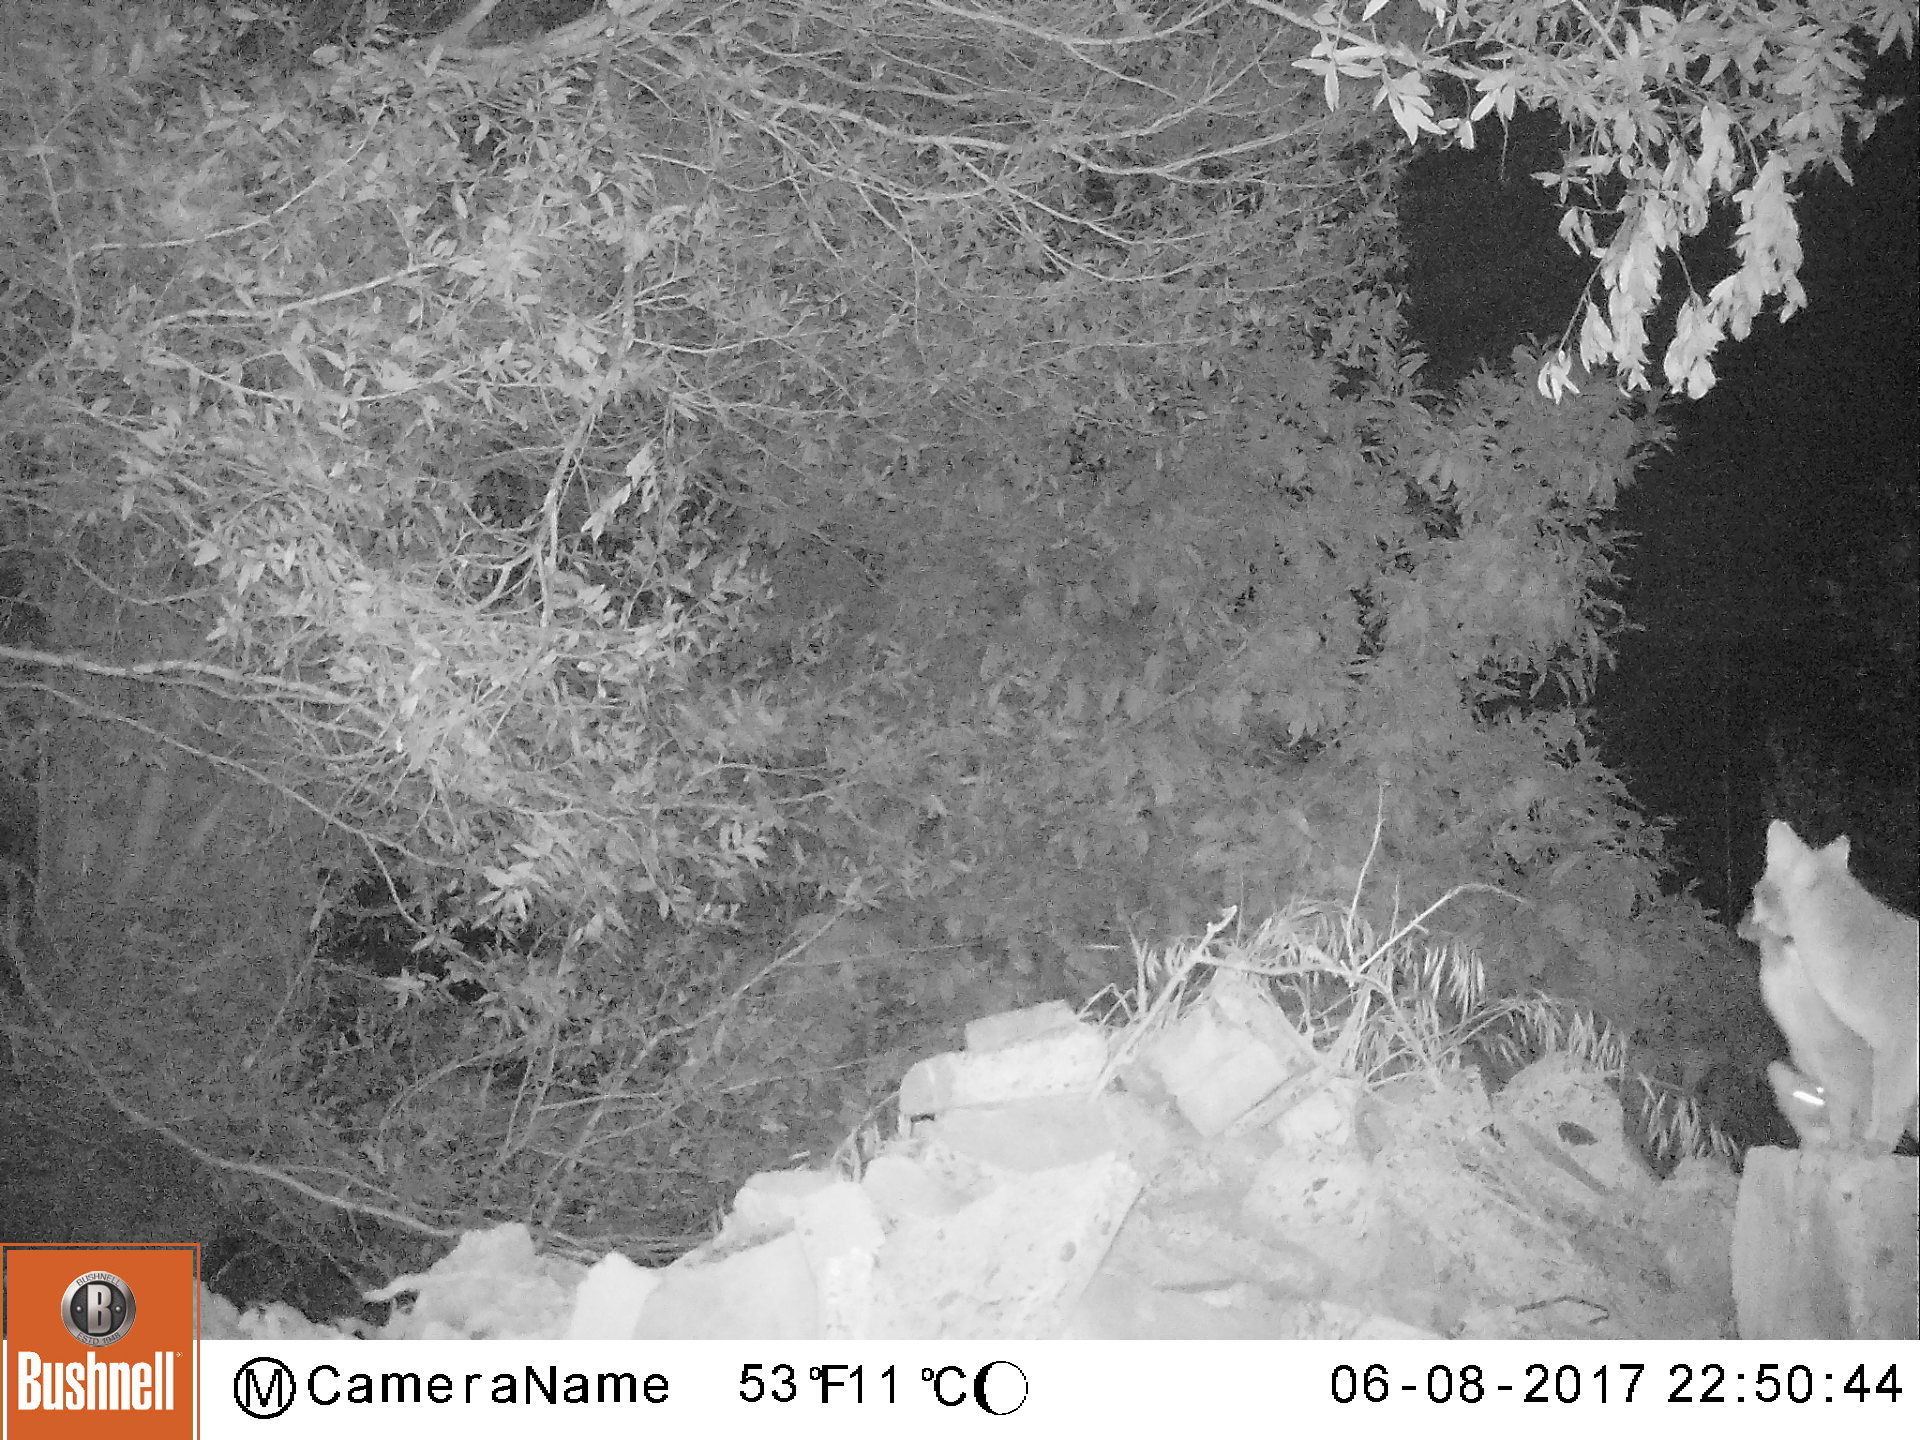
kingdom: Animalia
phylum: Chordata
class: Mammalia
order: Carnivora
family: Canidae
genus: Urocyon
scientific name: Urocyon cinereoargenteus
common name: Gray fox
